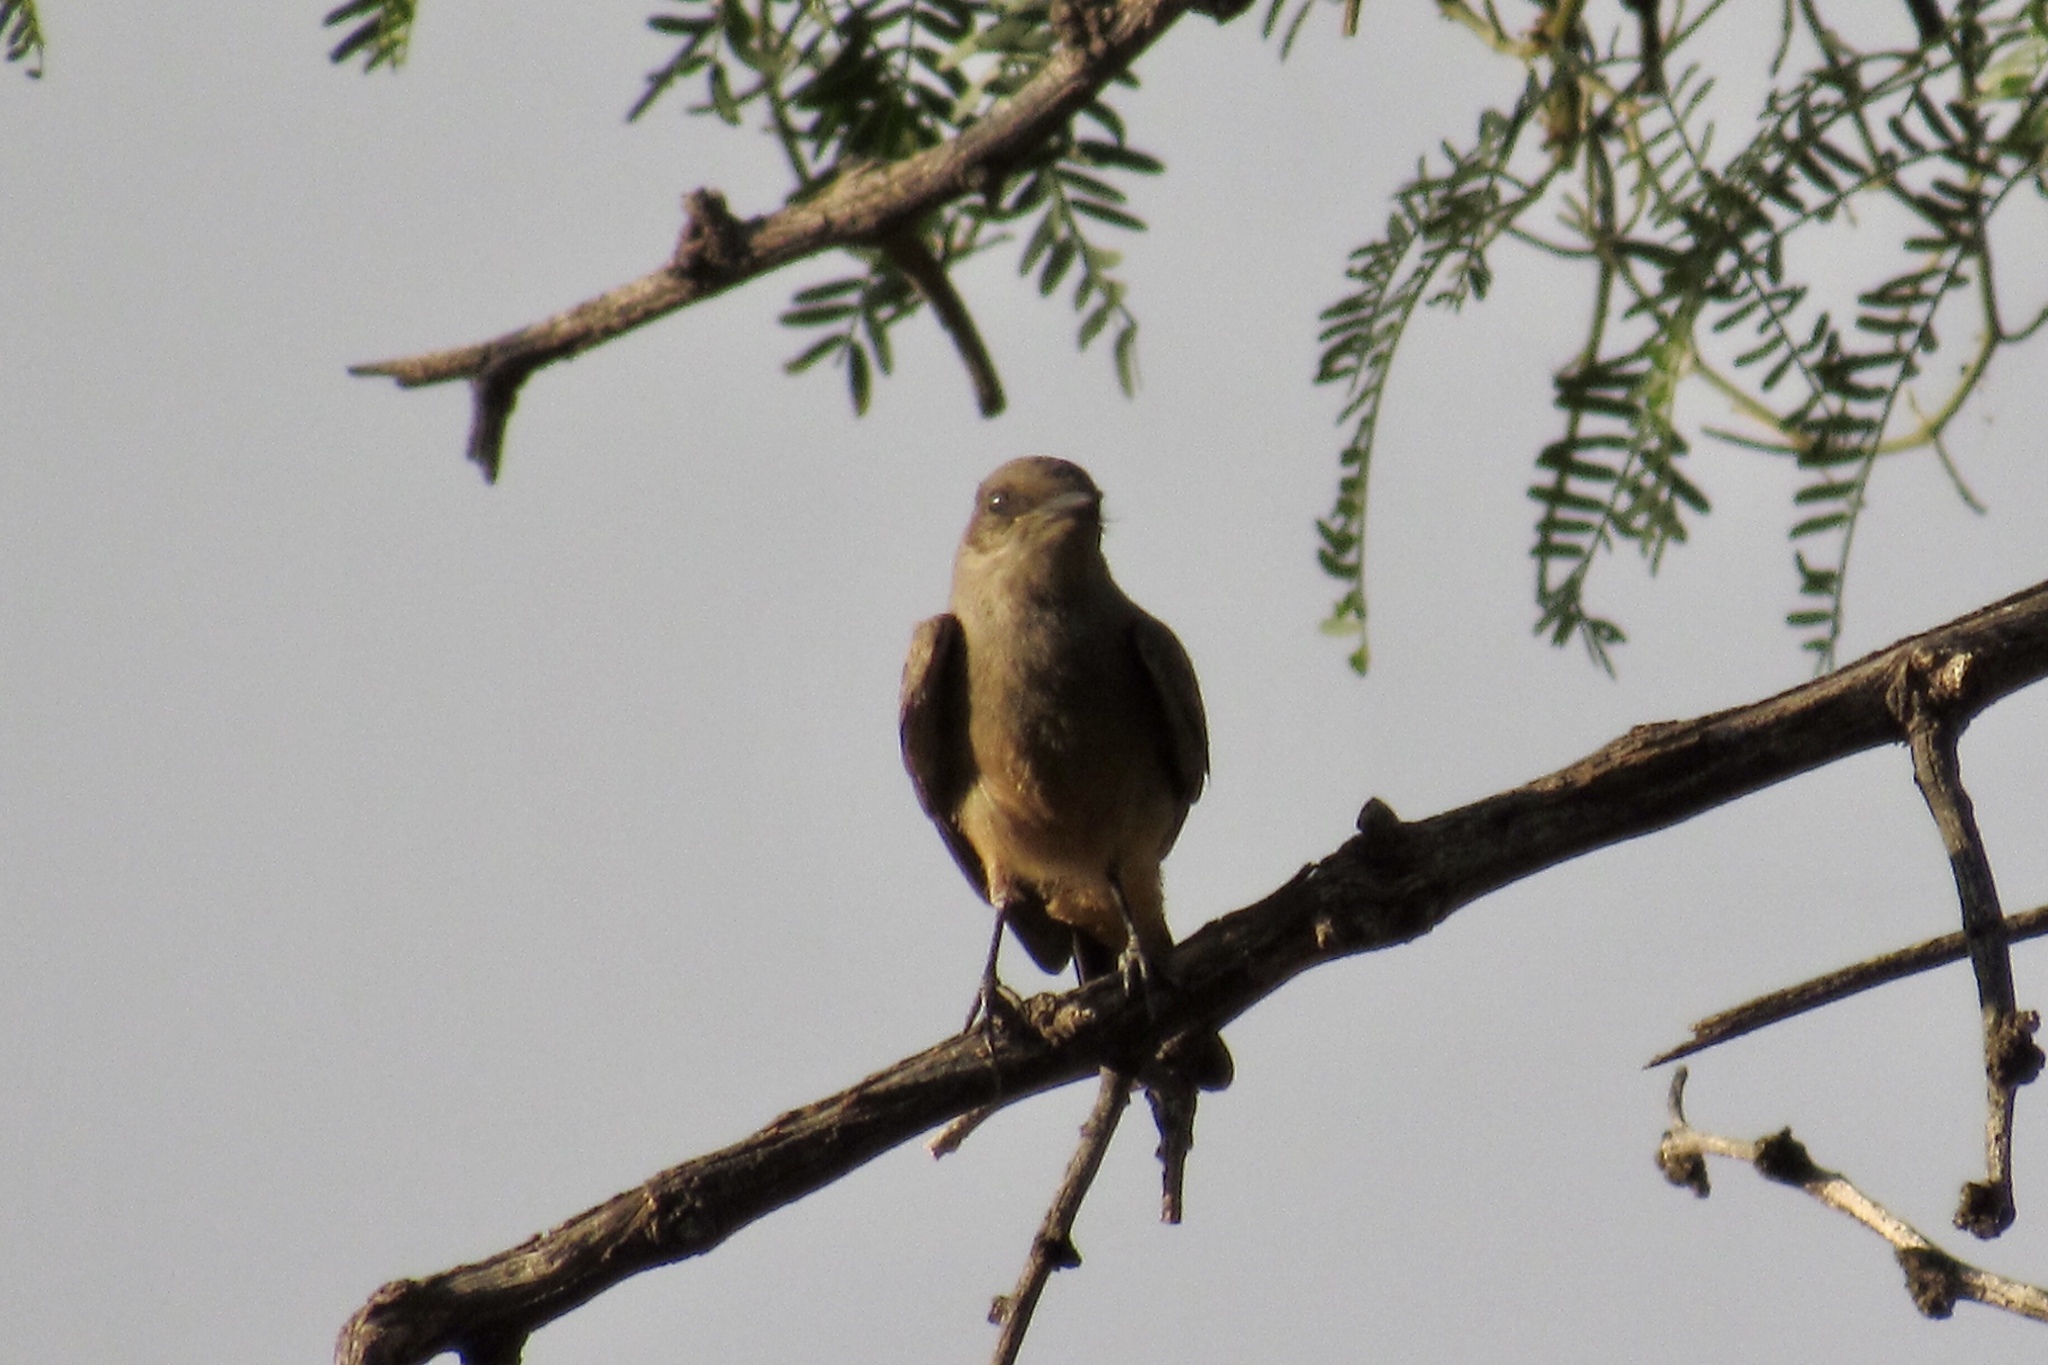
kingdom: Animalia
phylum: Chordata
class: Aves
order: Passeriformes
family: Tyrannidae
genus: Sayornis
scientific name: Sayornis saya
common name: Say's phoebe
